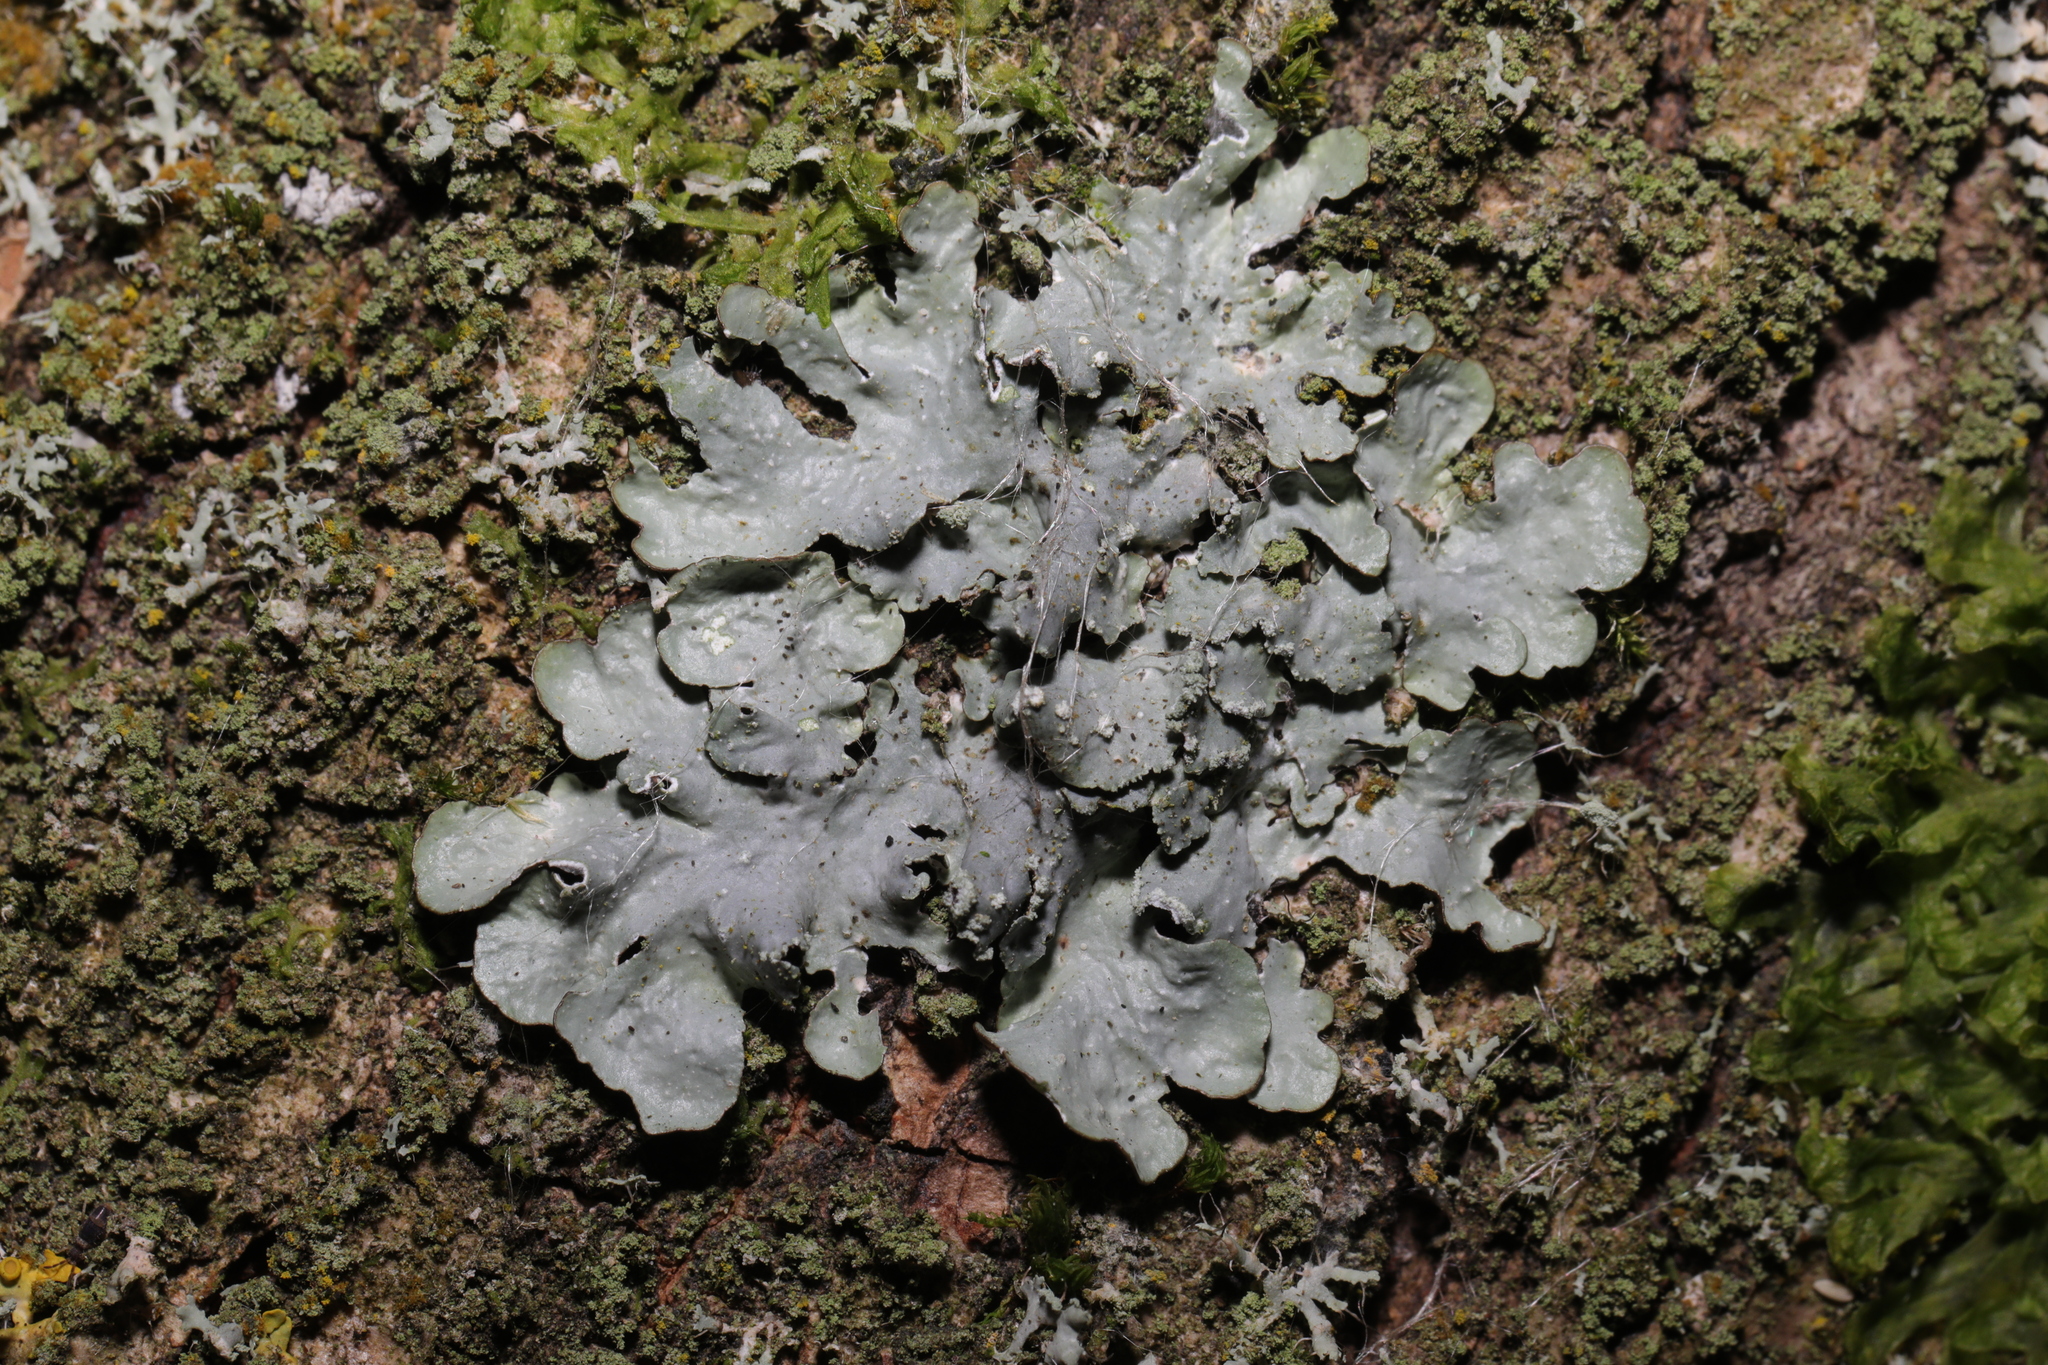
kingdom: Fungi
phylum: Ascomycota
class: Lecanoromycetes
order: Lecanorales
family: Parmeliaceae
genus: Punctelia
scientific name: Punctelia subrudecta
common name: Powdered speckled shield lichen
